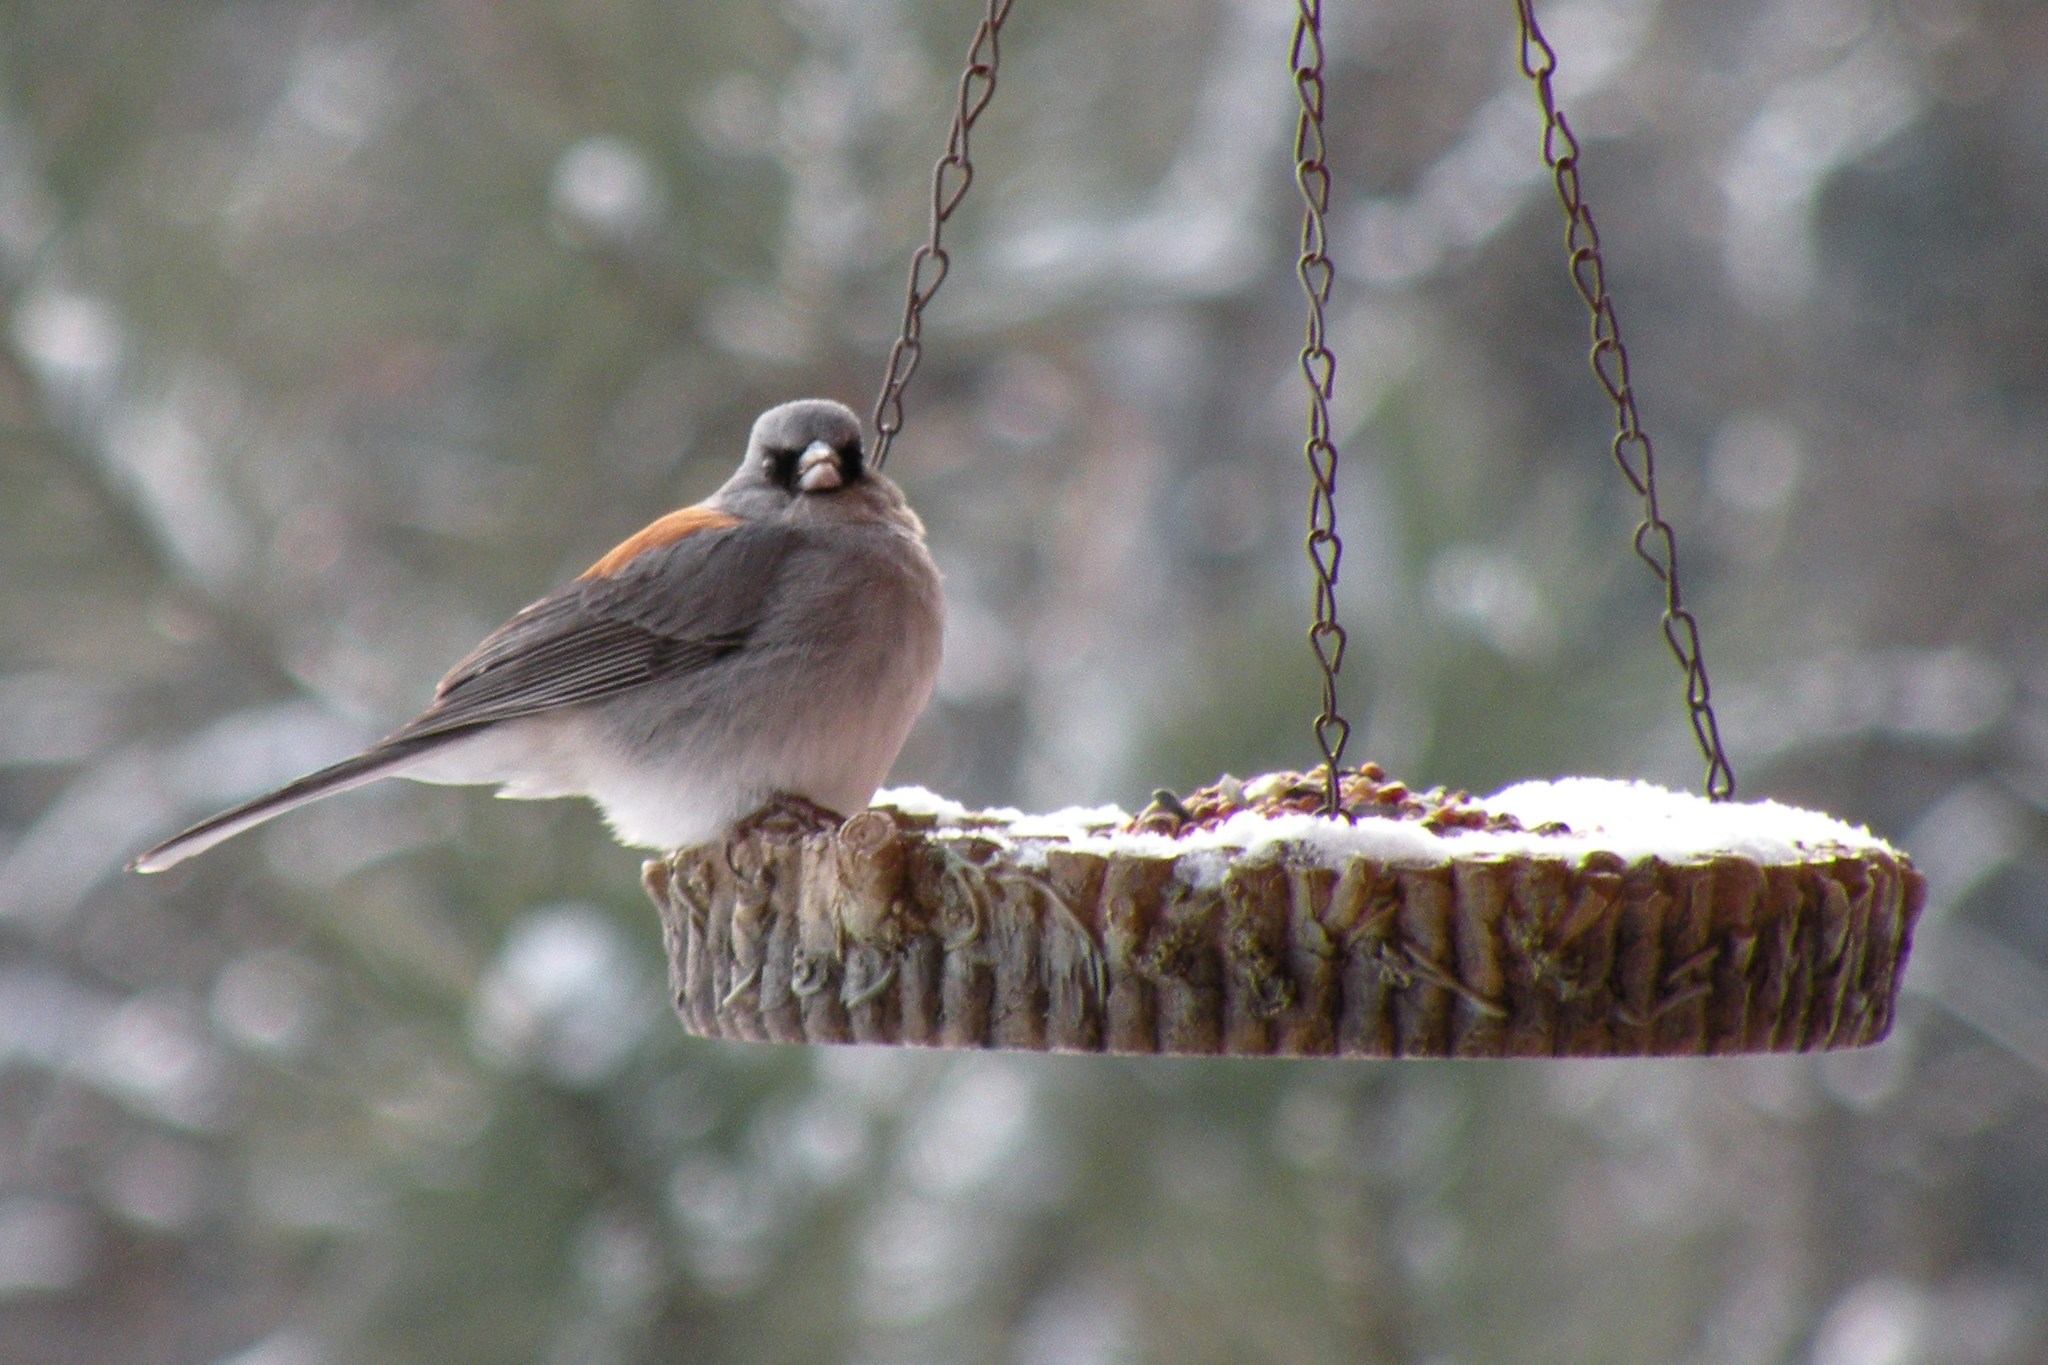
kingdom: Animalia
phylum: Chordata
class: Aves
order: Passeriformes
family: Passerellidae
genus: Junco
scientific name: Junco hyemalis
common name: Dark-eyed junco
